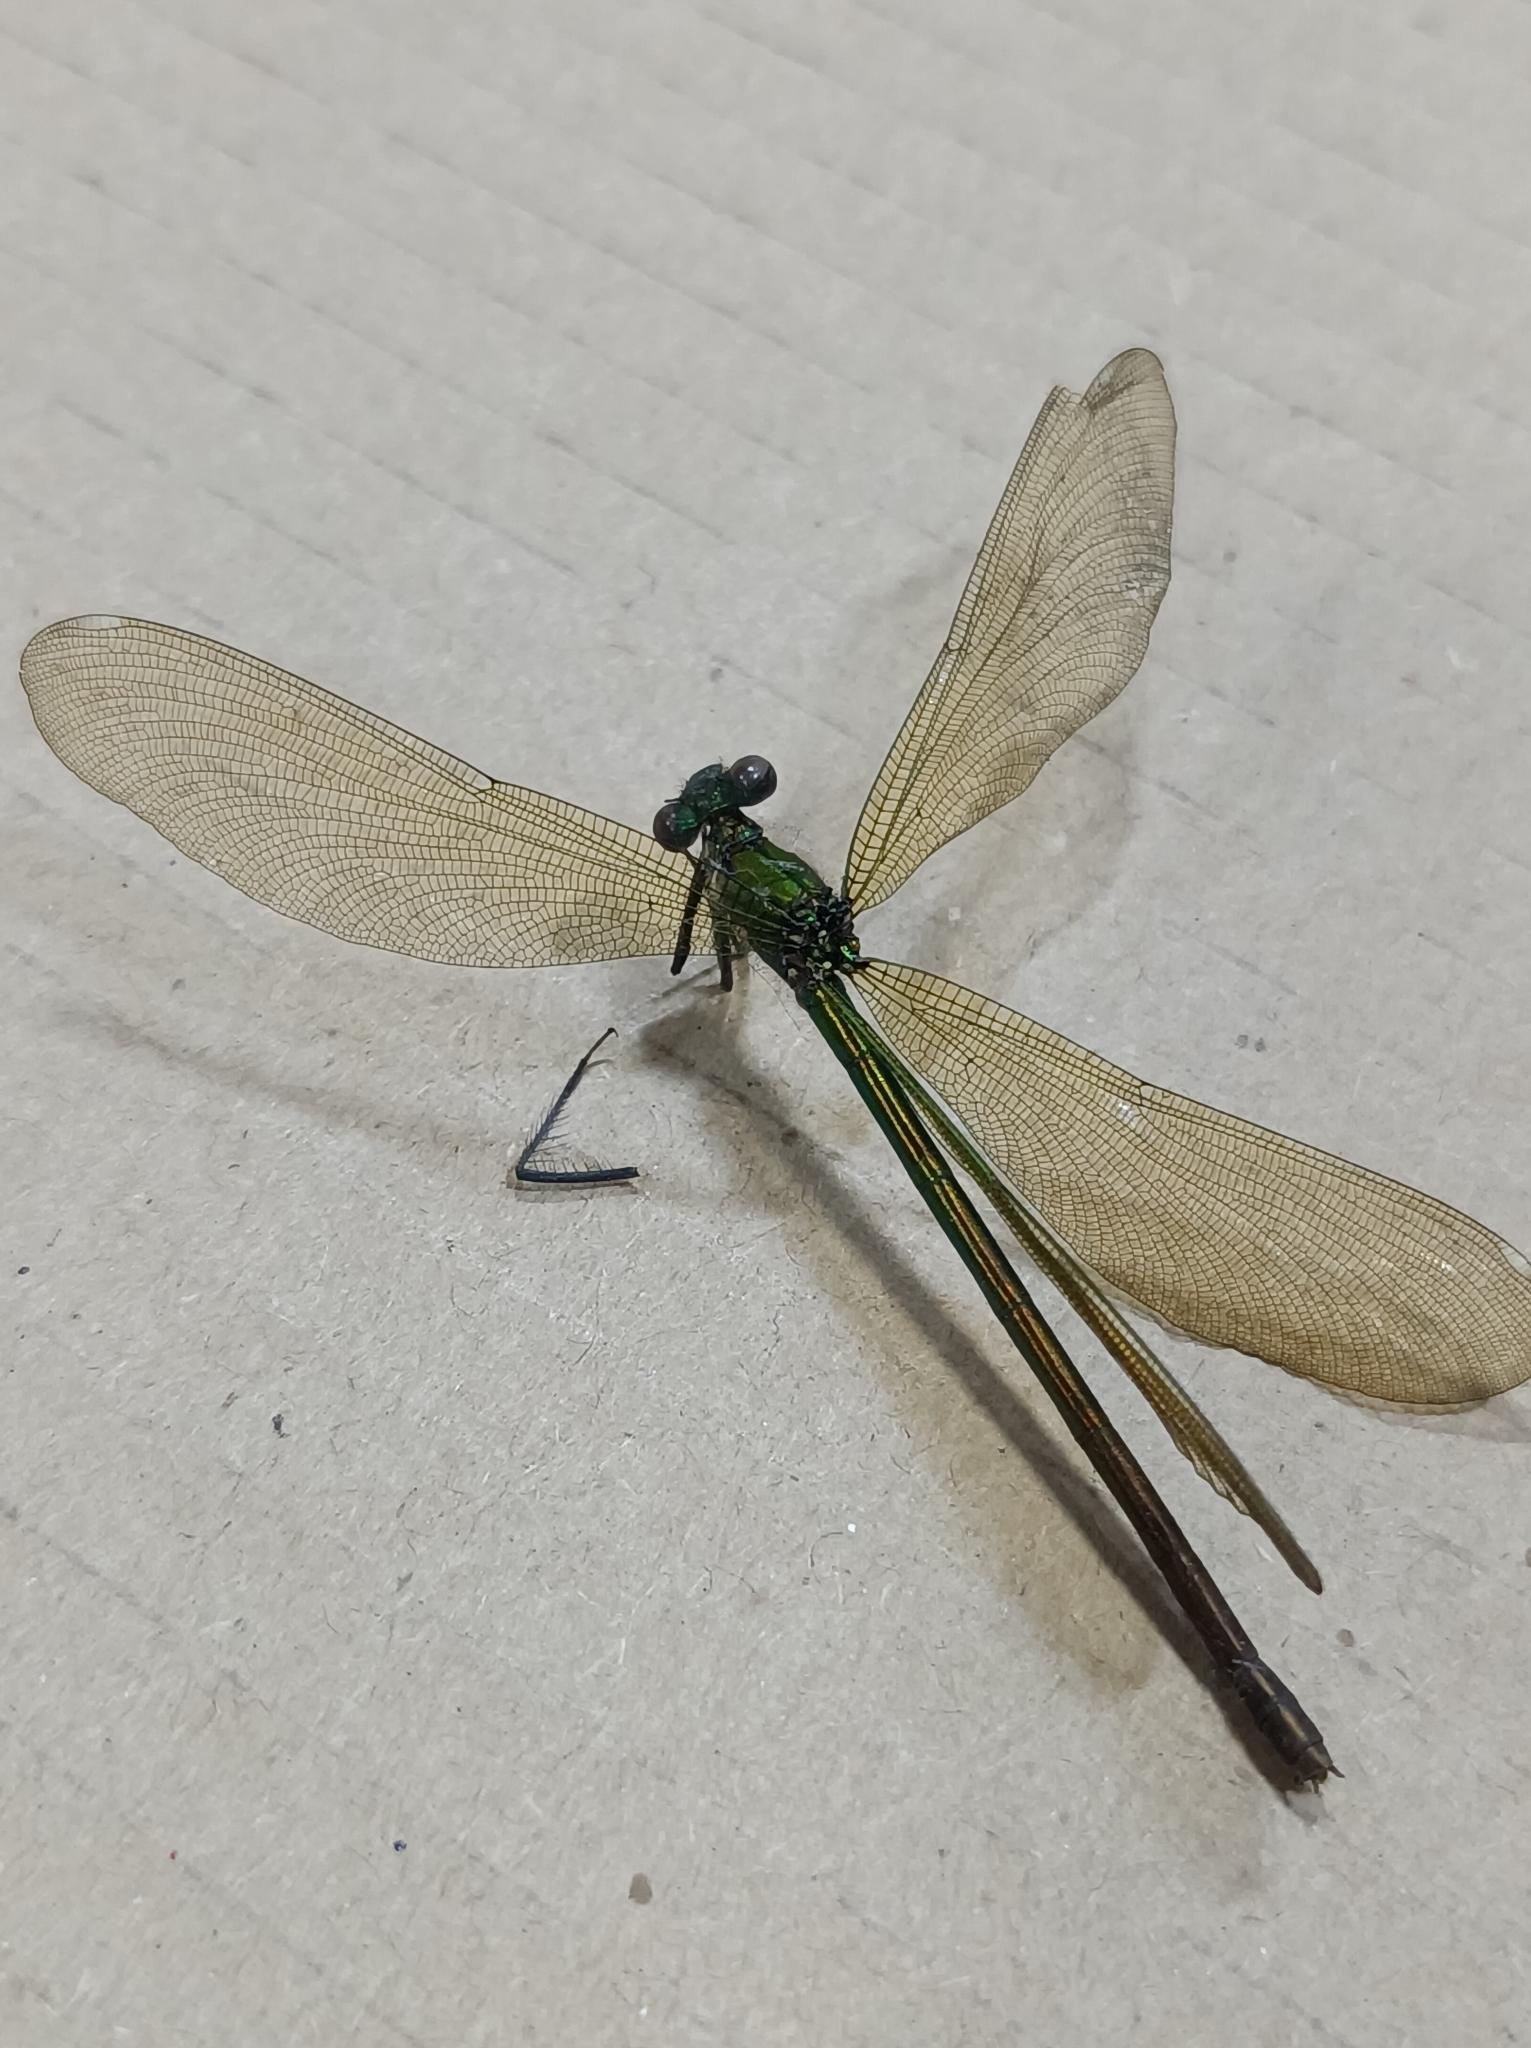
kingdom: Animalia
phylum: Arthropoda
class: Insecta
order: Odonata
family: Calopterygidae
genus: Calopteryx
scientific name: Calopteryx splendens
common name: Banded demoiselle
